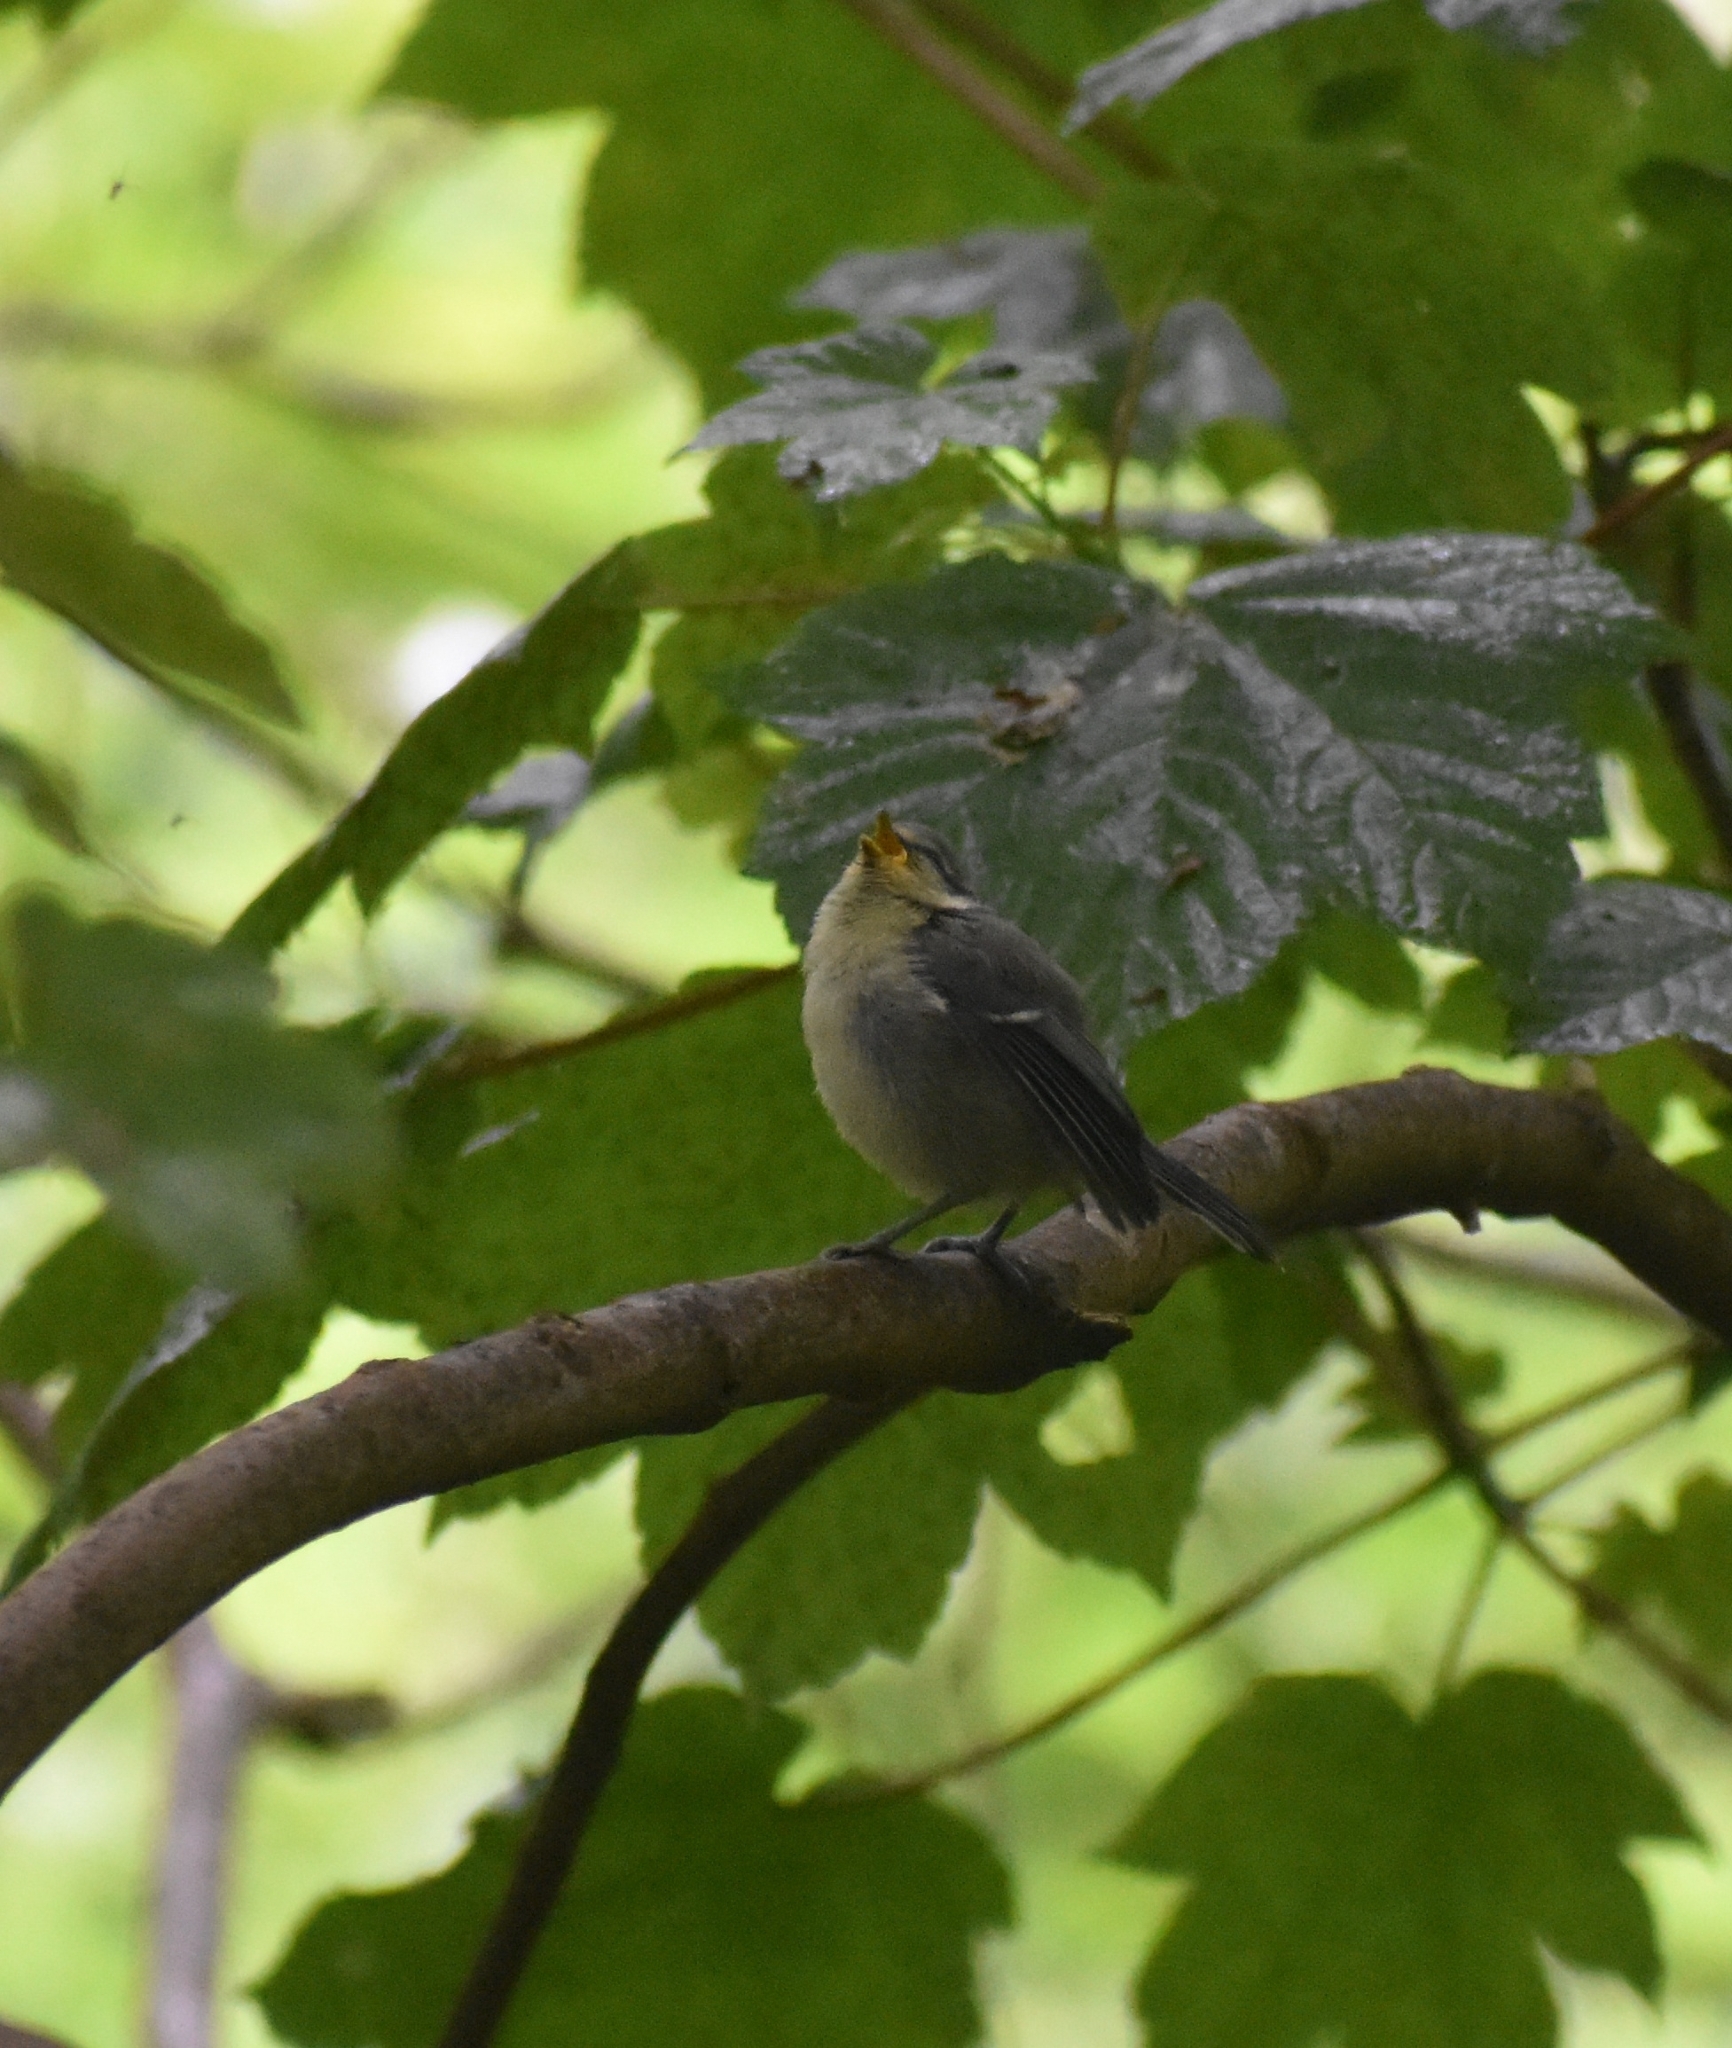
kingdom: Animalia
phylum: Chordata
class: Aves
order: Passeriformes
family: Paridae
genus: Cyanistes
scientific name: Cyanistes caeruleus
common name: Eurasian blue tit
